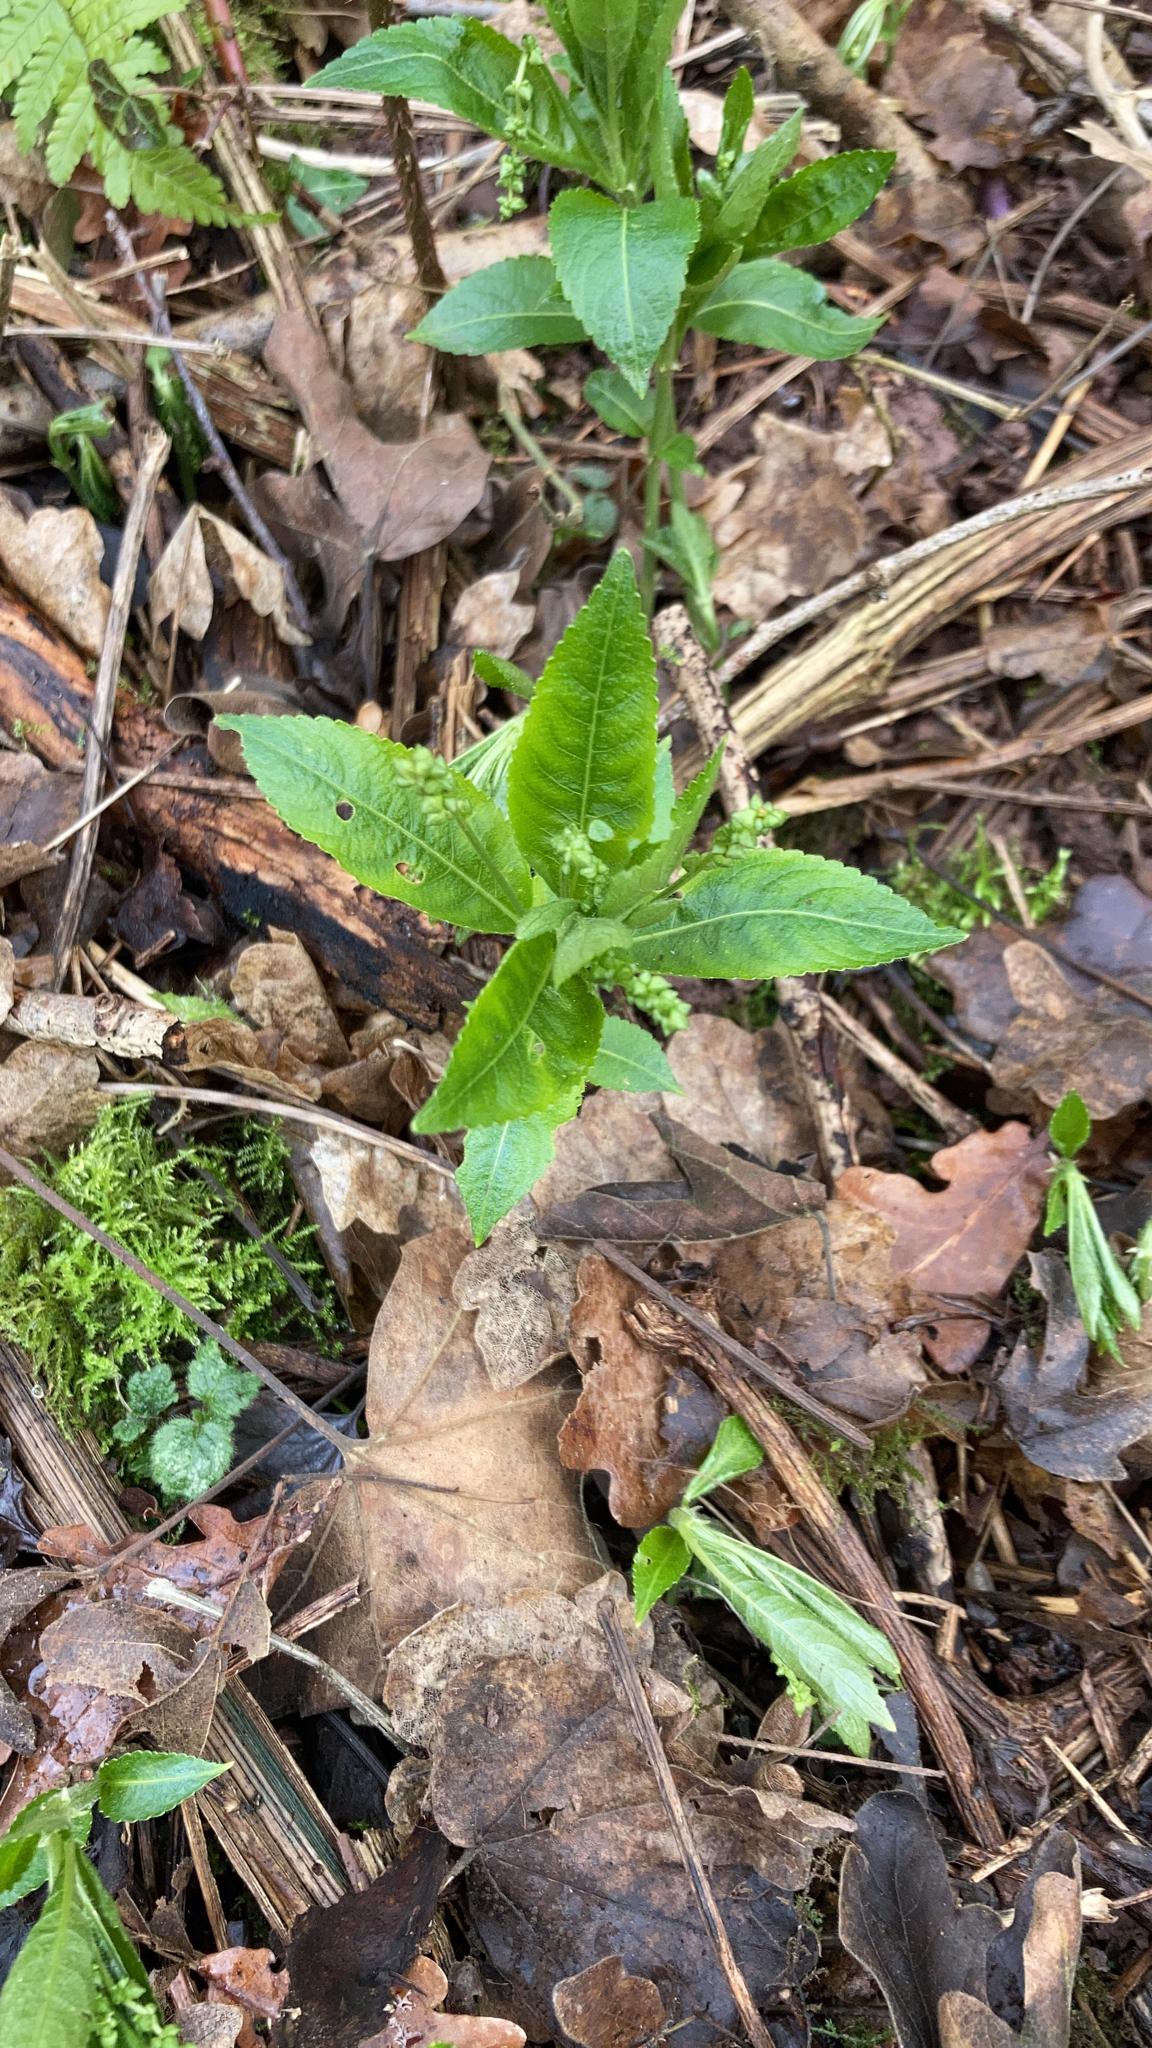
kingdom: Plantae
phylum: Tracheophyta
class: Magnoliopsida
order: Malpighiales
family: Euphorbiaceae
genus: Mercurialis
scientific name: Mercurialis perennis
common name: Dog mercury
